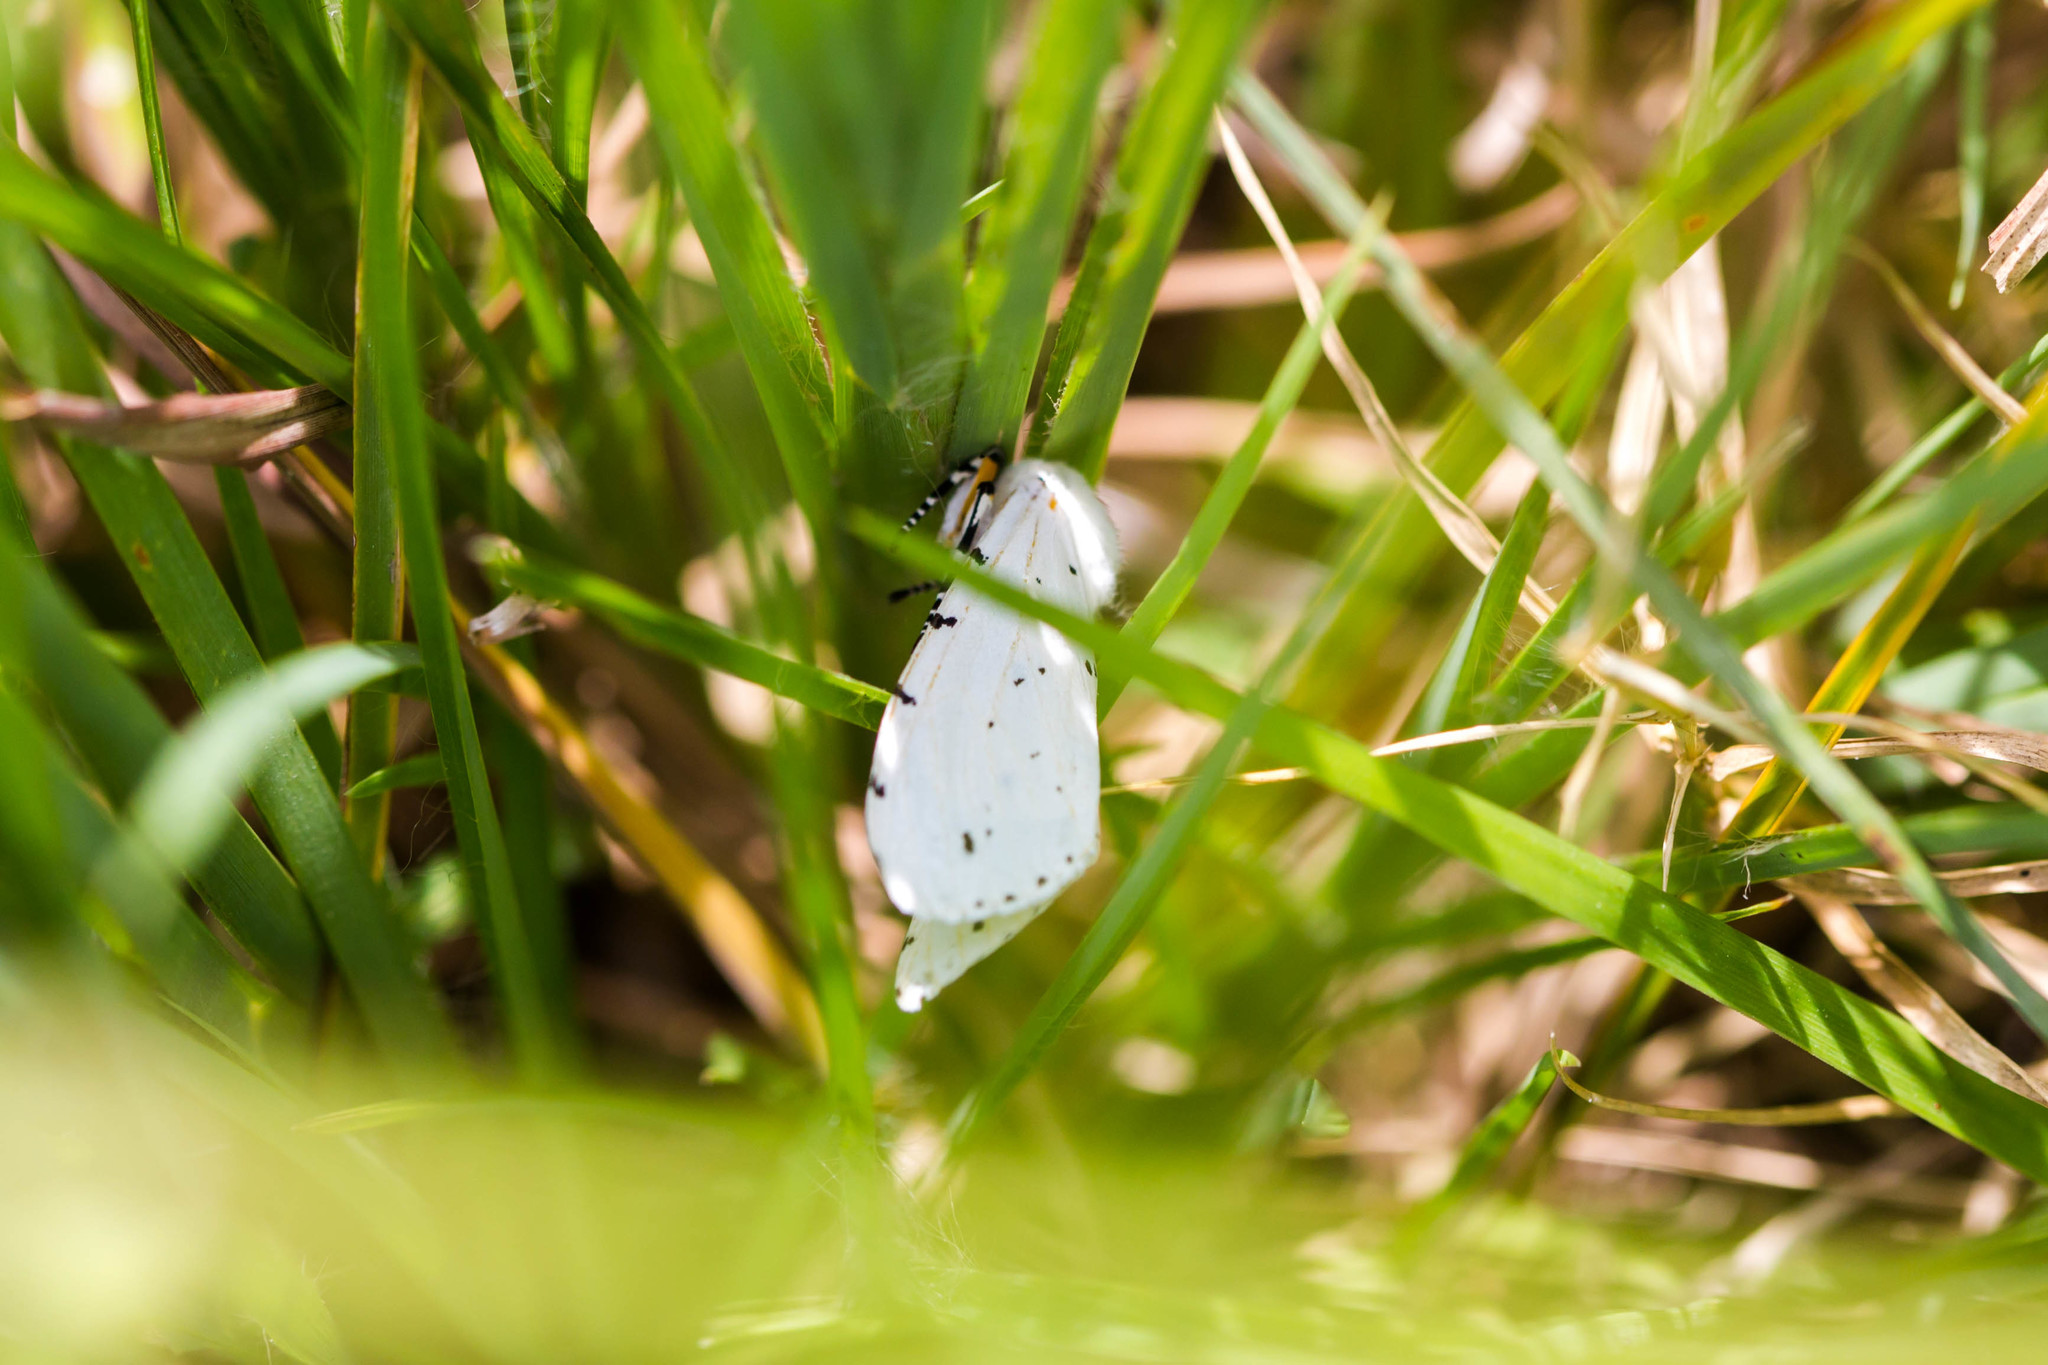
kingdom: Animalia
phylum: Arthropoda
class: Insecta
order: Lepidoptera
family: Erebidae
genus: Estigmene
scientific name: Estigmene acrea
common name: Salt marsh moth
